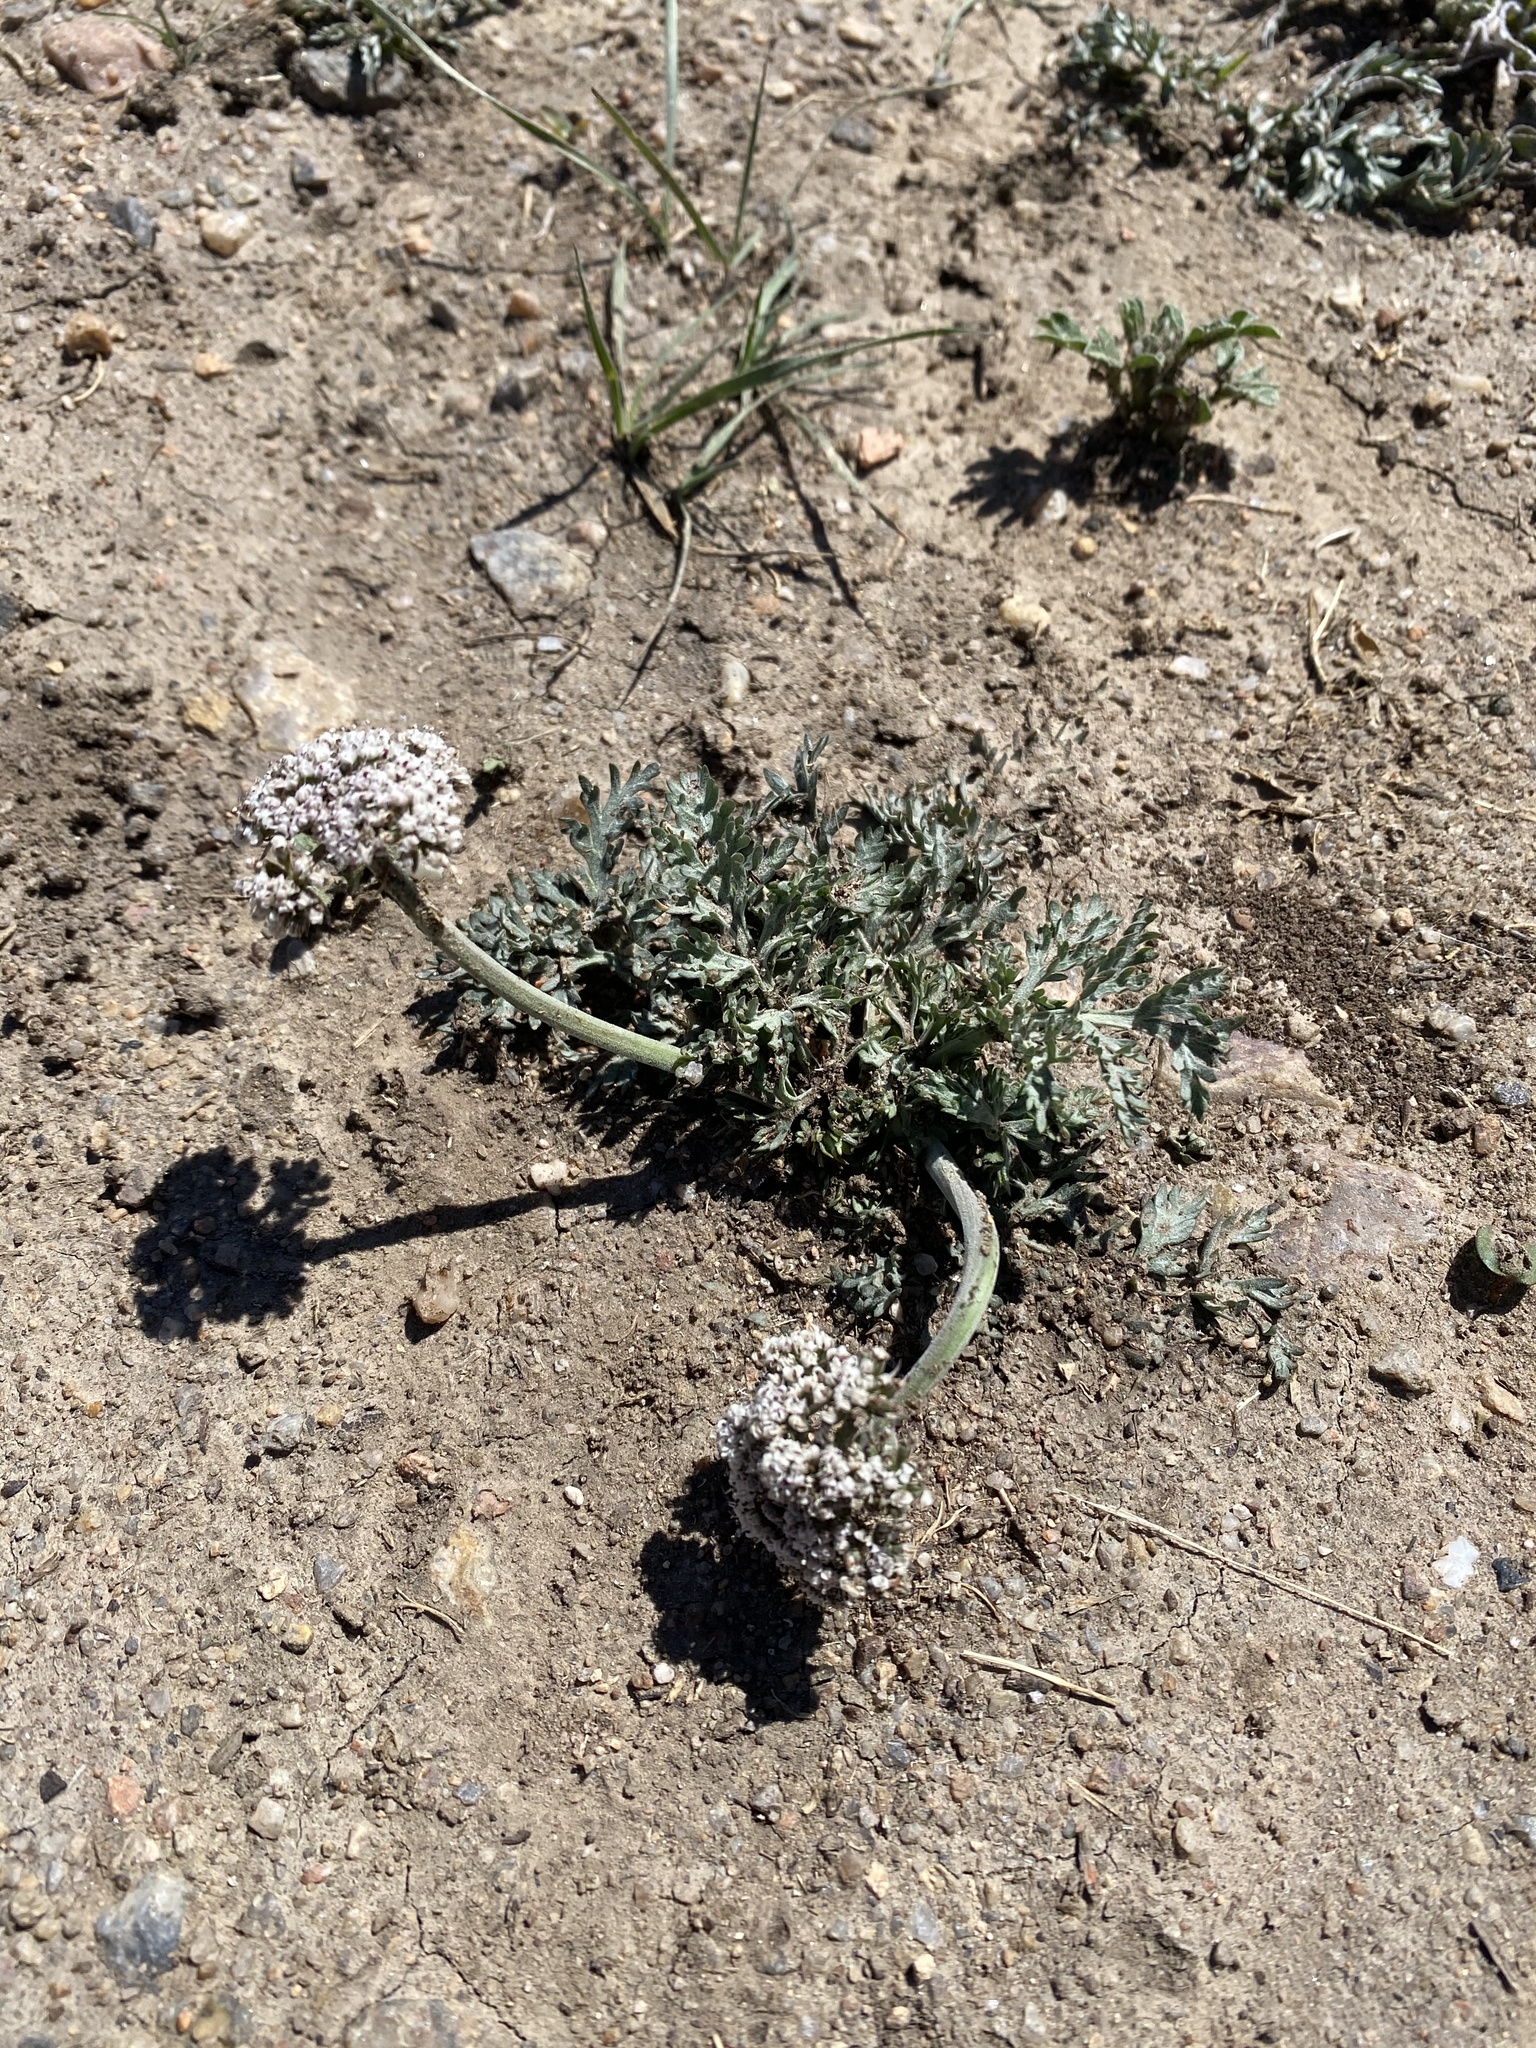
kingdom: Plantae
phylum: Tracheophyta
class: Magnoliopsida
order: Apiales
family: Apiaceae
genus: Lomatium
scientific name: Lomatium orientale
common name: Eastern cous
